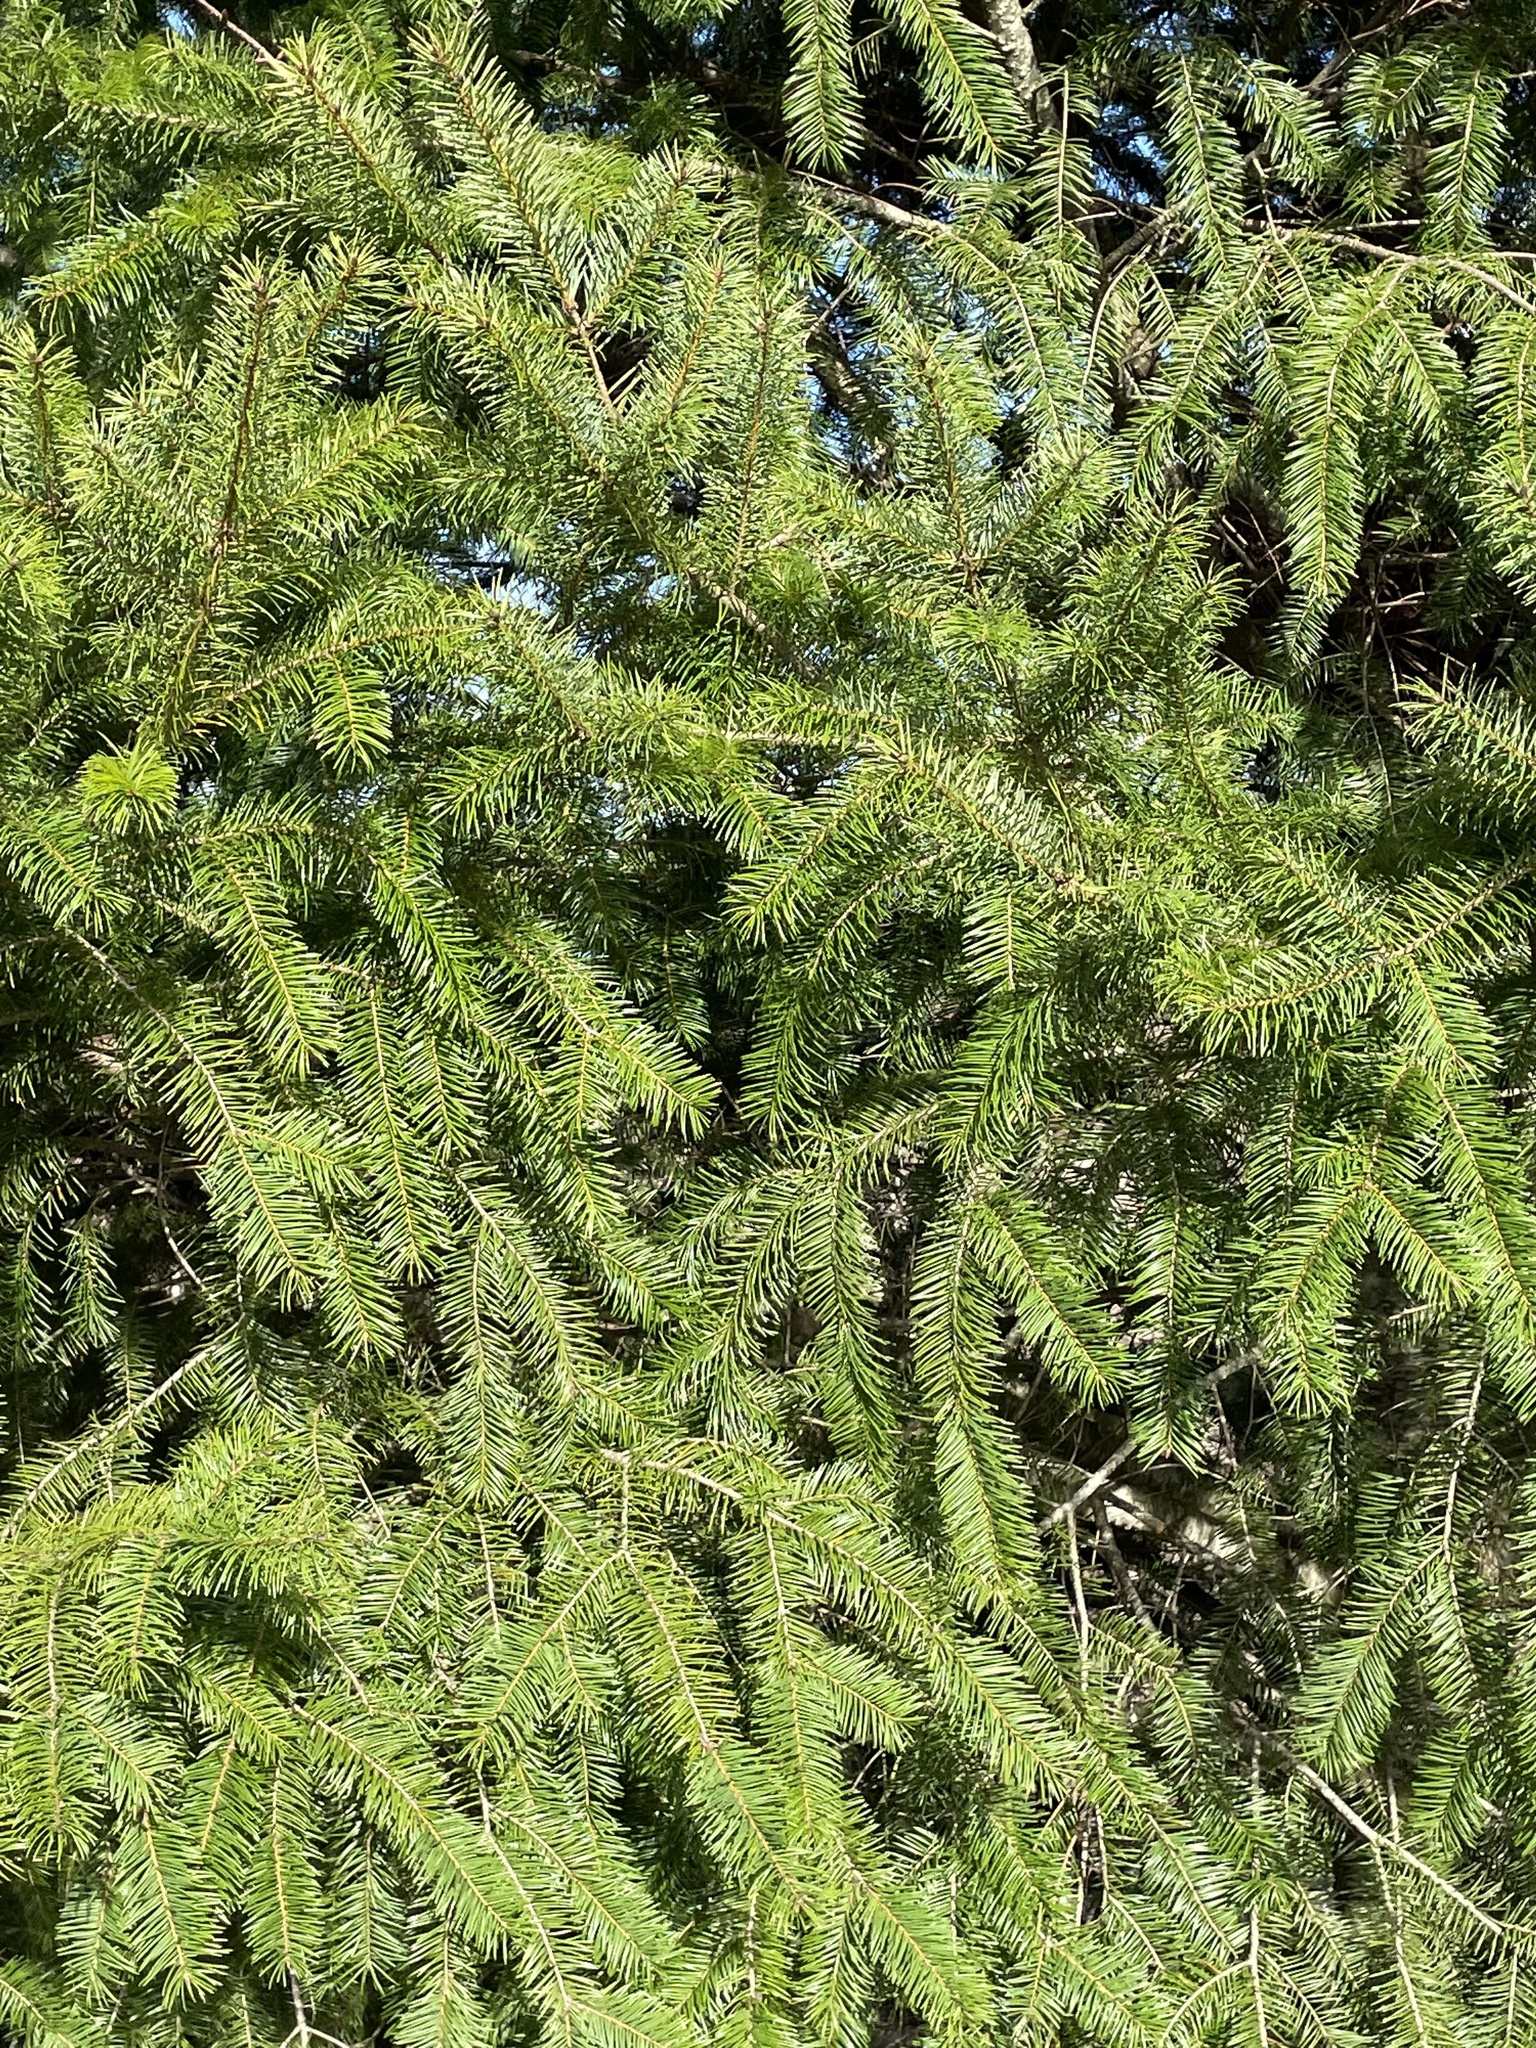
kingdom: Plantae
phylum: Tracheophyta
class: Pinopsida
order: Pinales
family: Pinaceae
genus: Pseudotsuga
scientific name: Pseudotsuga menziesii
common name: Douglas fir
